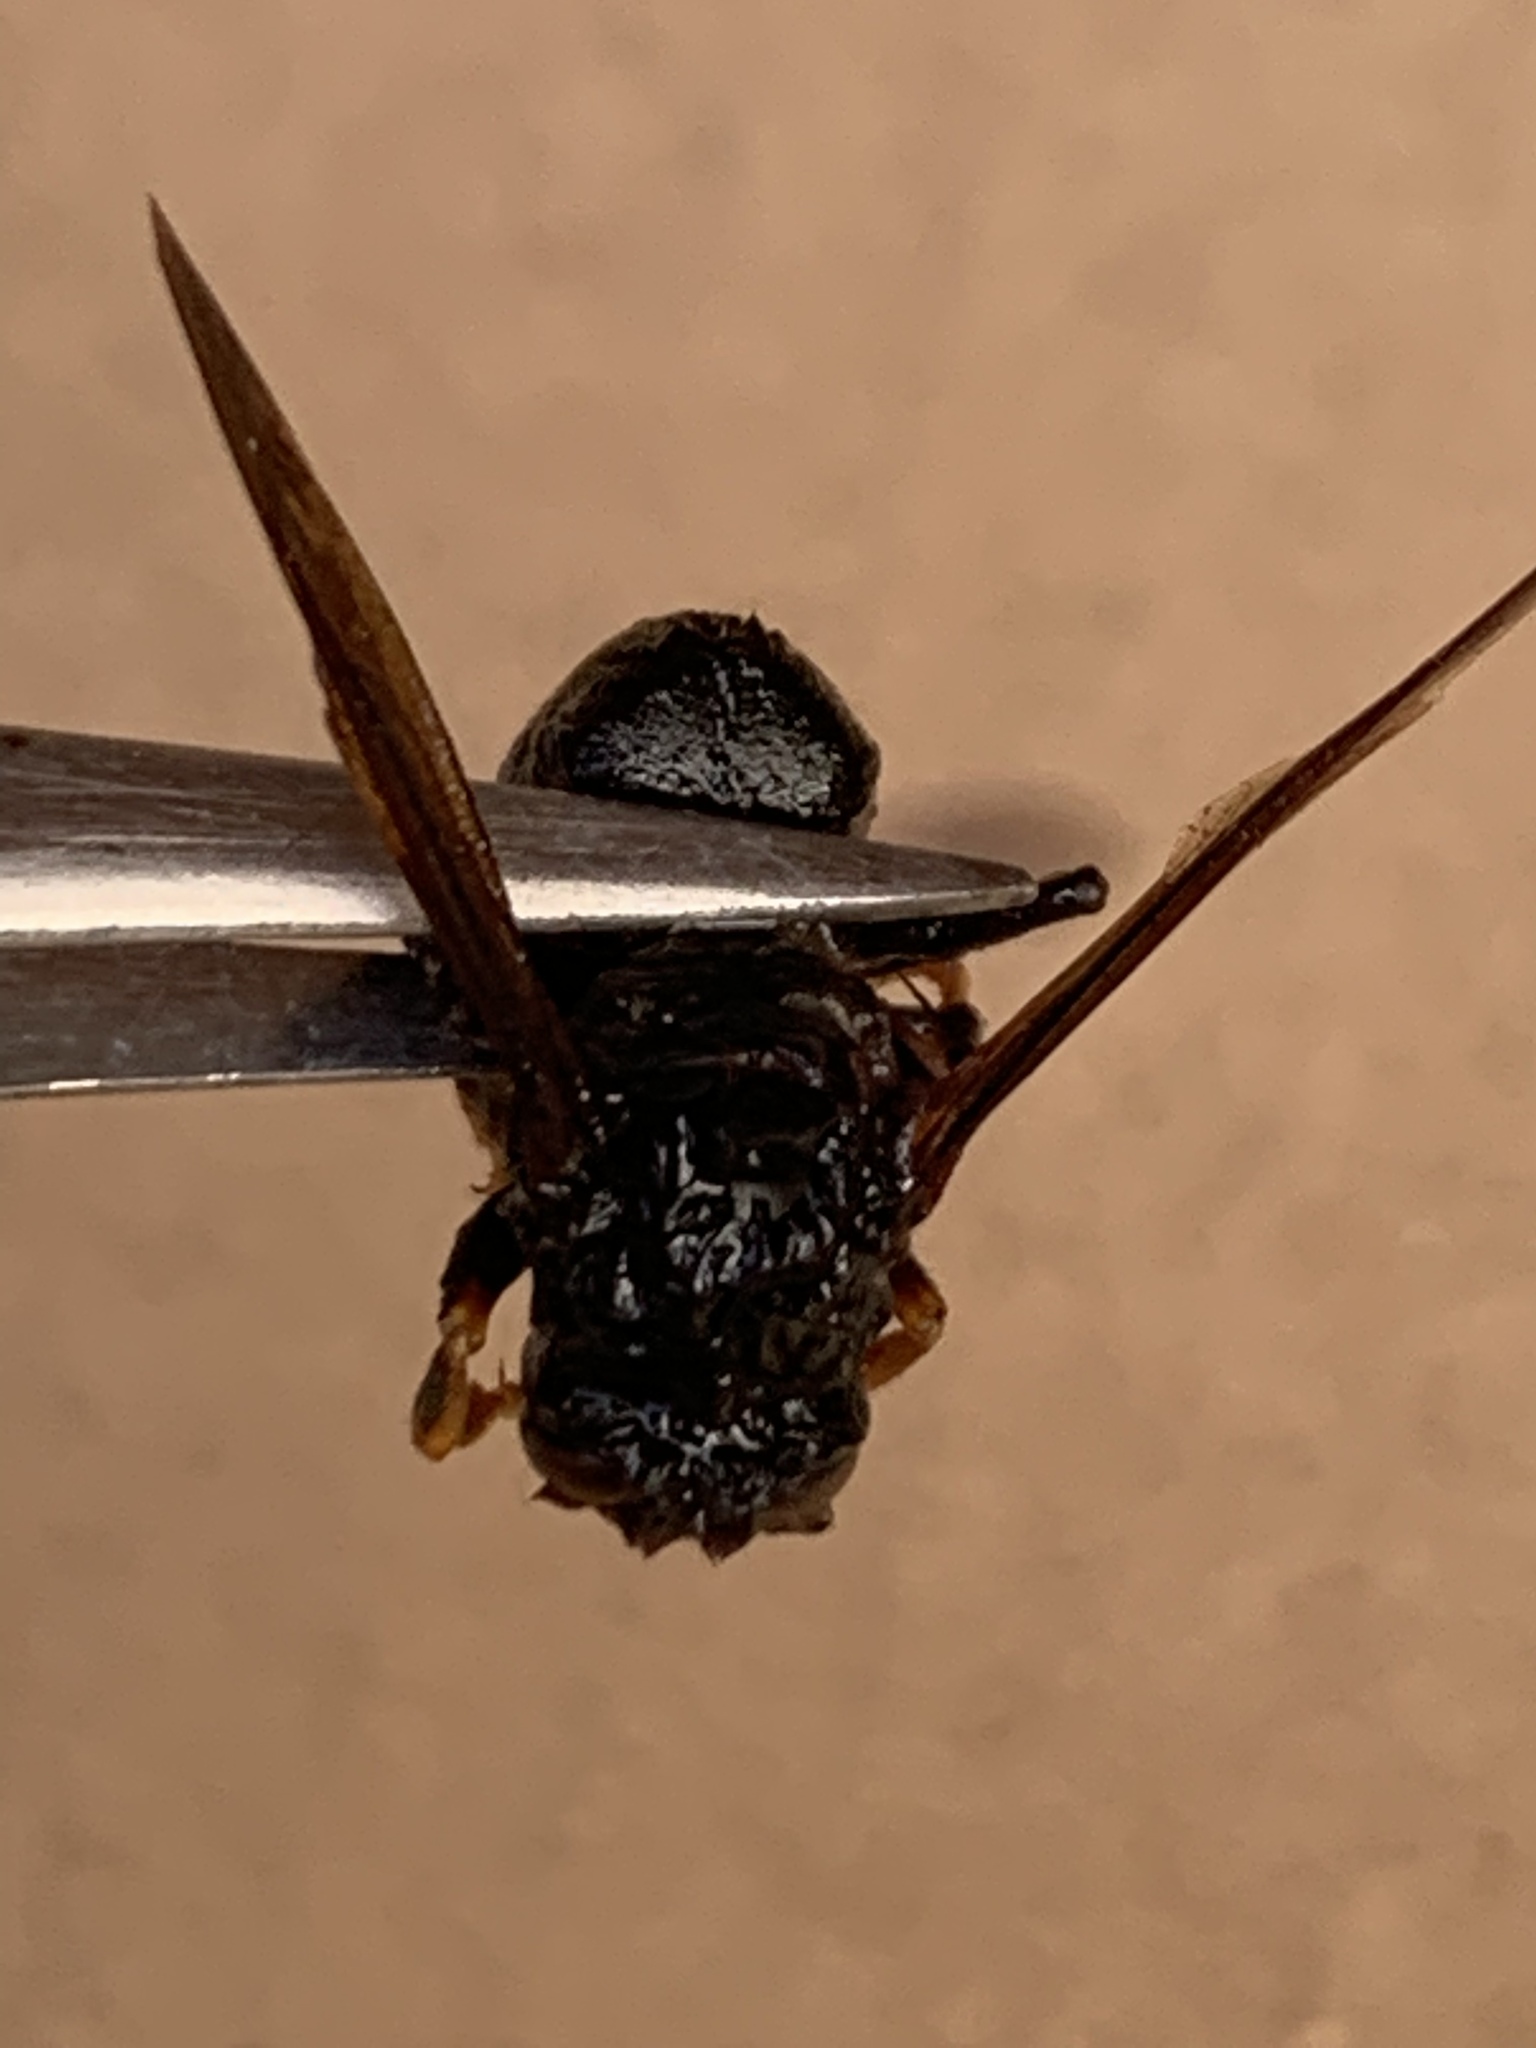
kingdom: Animalia
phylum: Arthropoda
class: Insecta
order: Hymenoptera
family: Vespidae
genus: Vespa
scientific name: Vespa velutina
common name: Asian hornet
